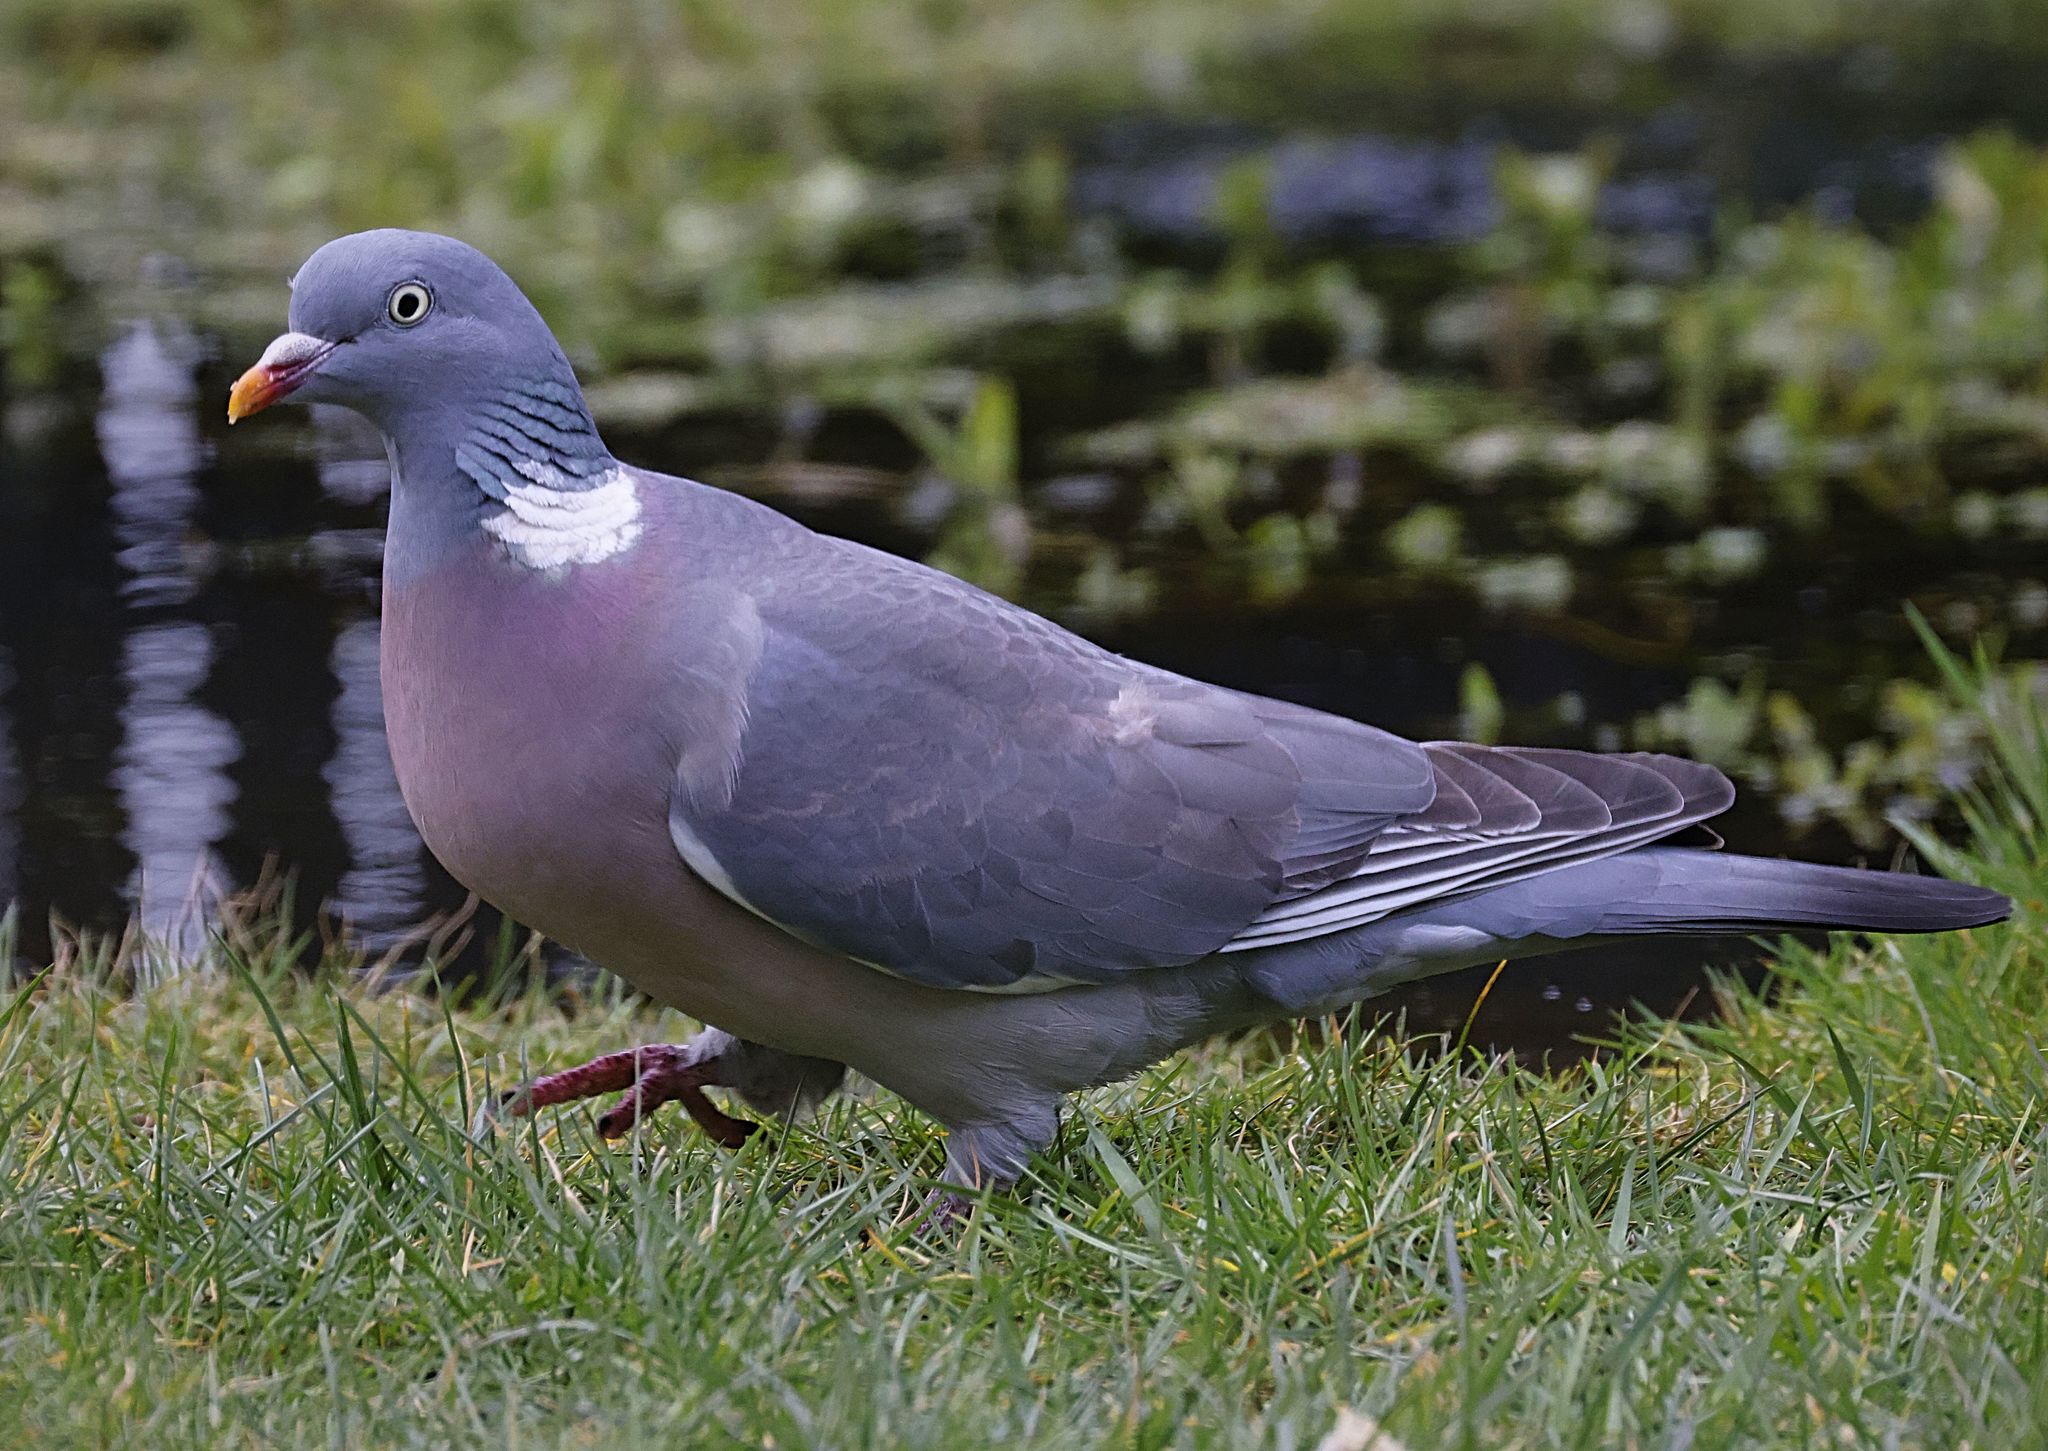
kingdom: Animalia
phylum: Chordata
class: Aves
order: Columbiformes
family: Columbidae
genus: Columba
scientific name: Columba palumbus
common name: Common wood pigeon
